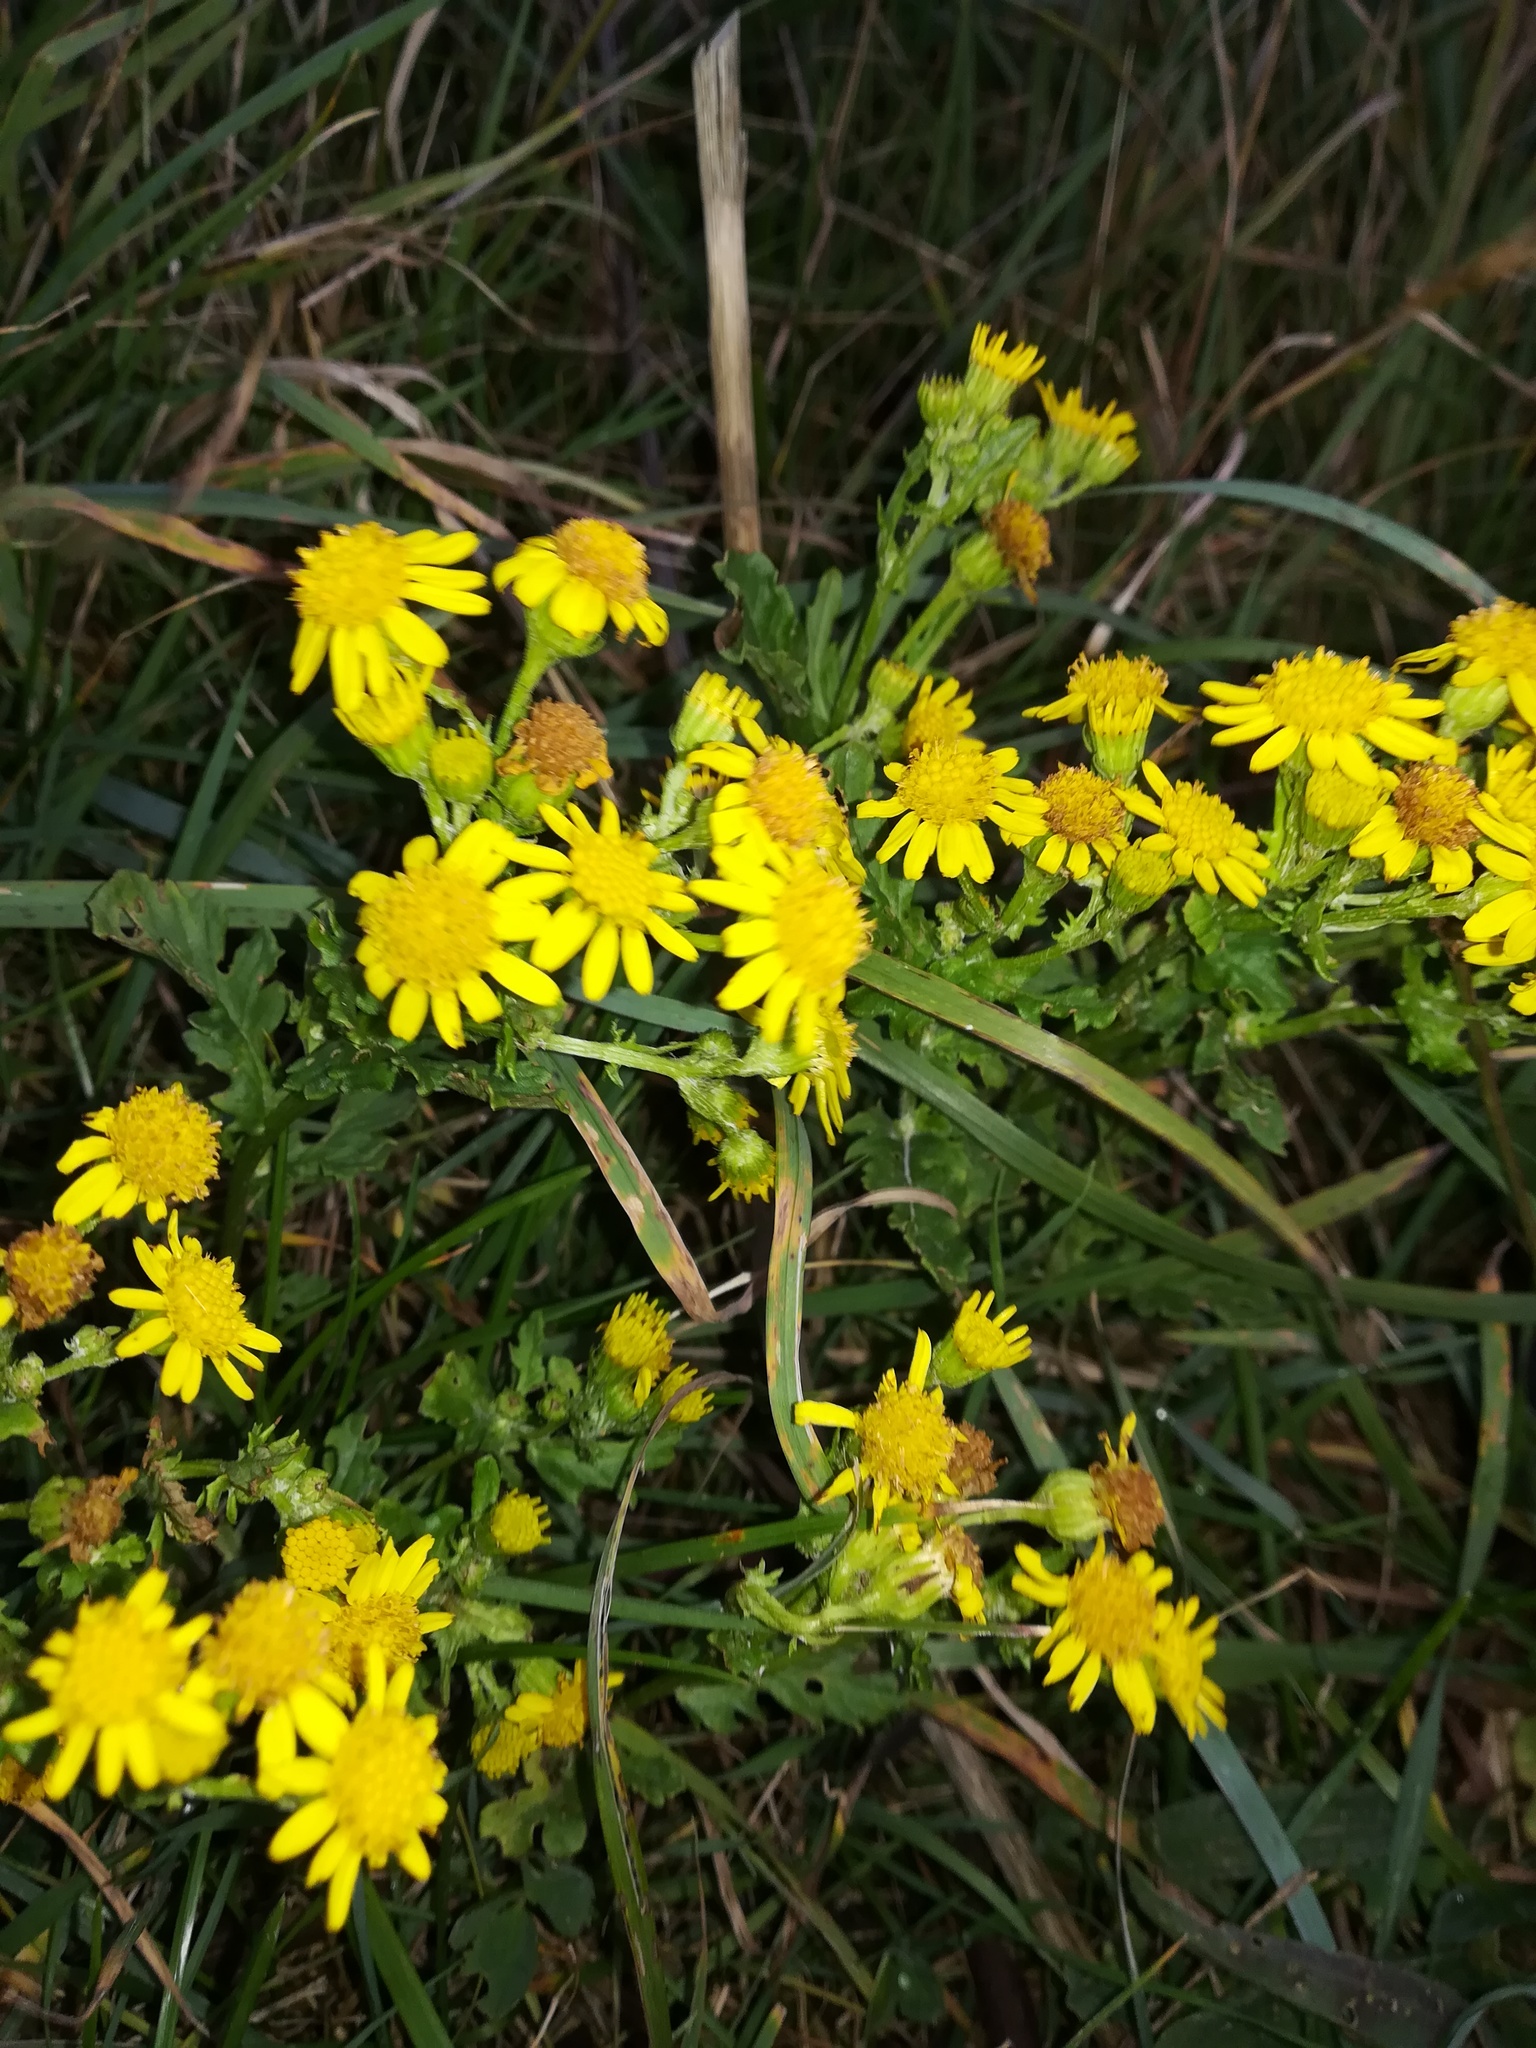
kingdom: Plantae
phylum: Tracheophyta
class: Magnoliopsida
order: Asterales
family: Asteraceae
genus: Jacobaea
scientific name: Jacobaea vulgaris
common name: Stinking willie
